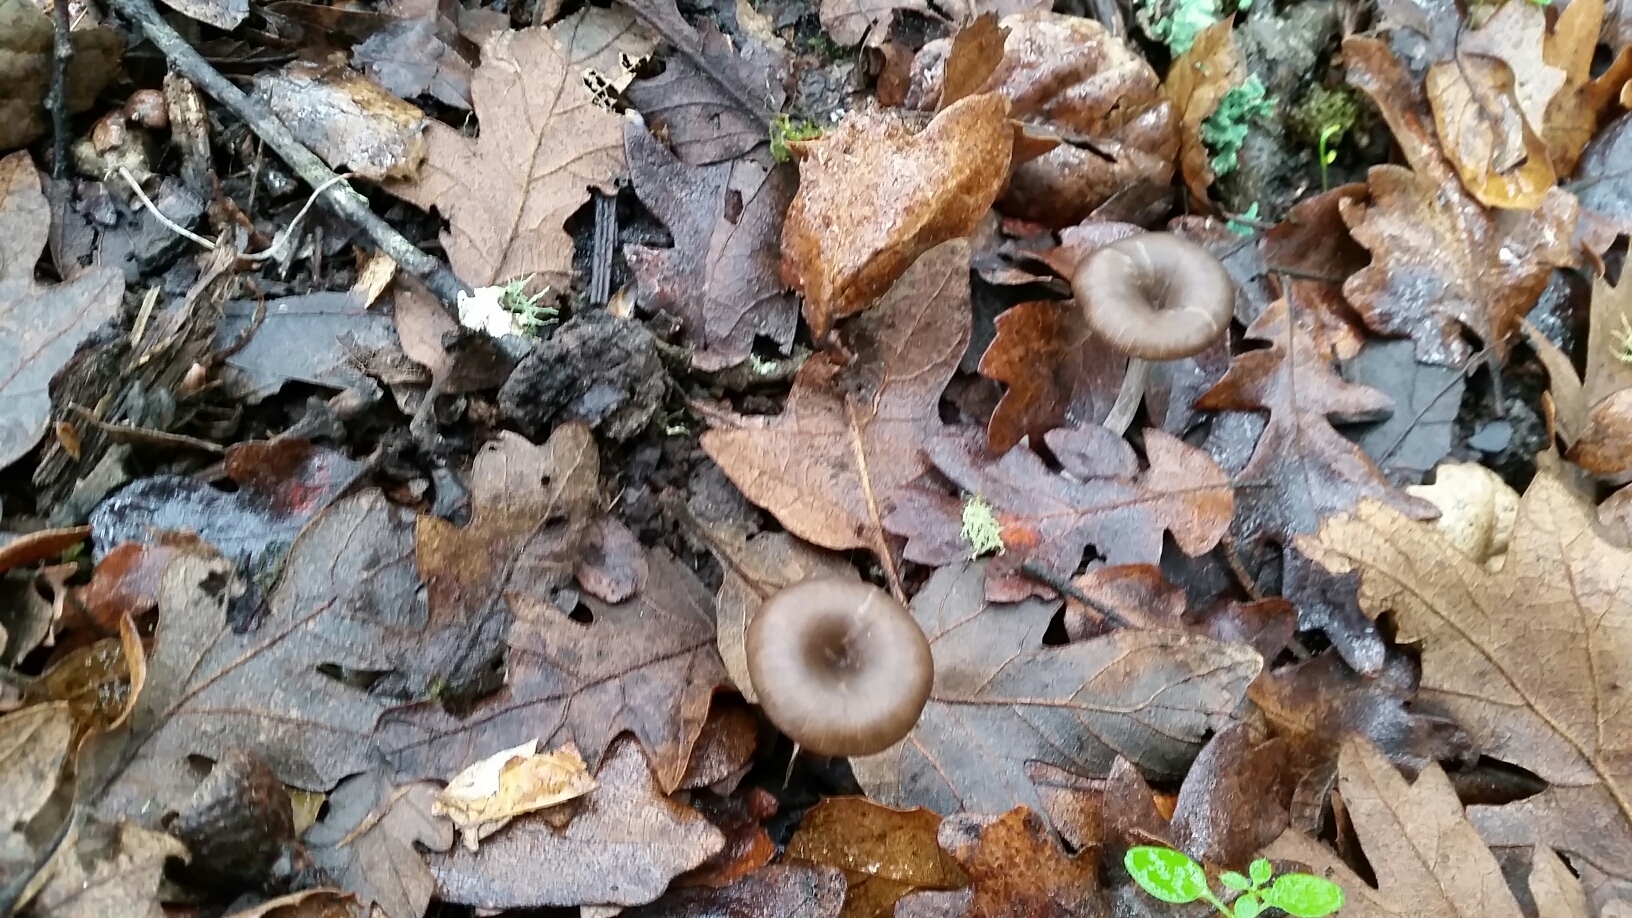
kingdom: Fungi
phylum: Basidiomycota
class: Agaricomycetes
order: Agaricales
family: Pseudoclitocybaceae
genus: Pseudoclitocybe
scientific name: Pseudoclitocybe cyathiformis
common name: Goblet
